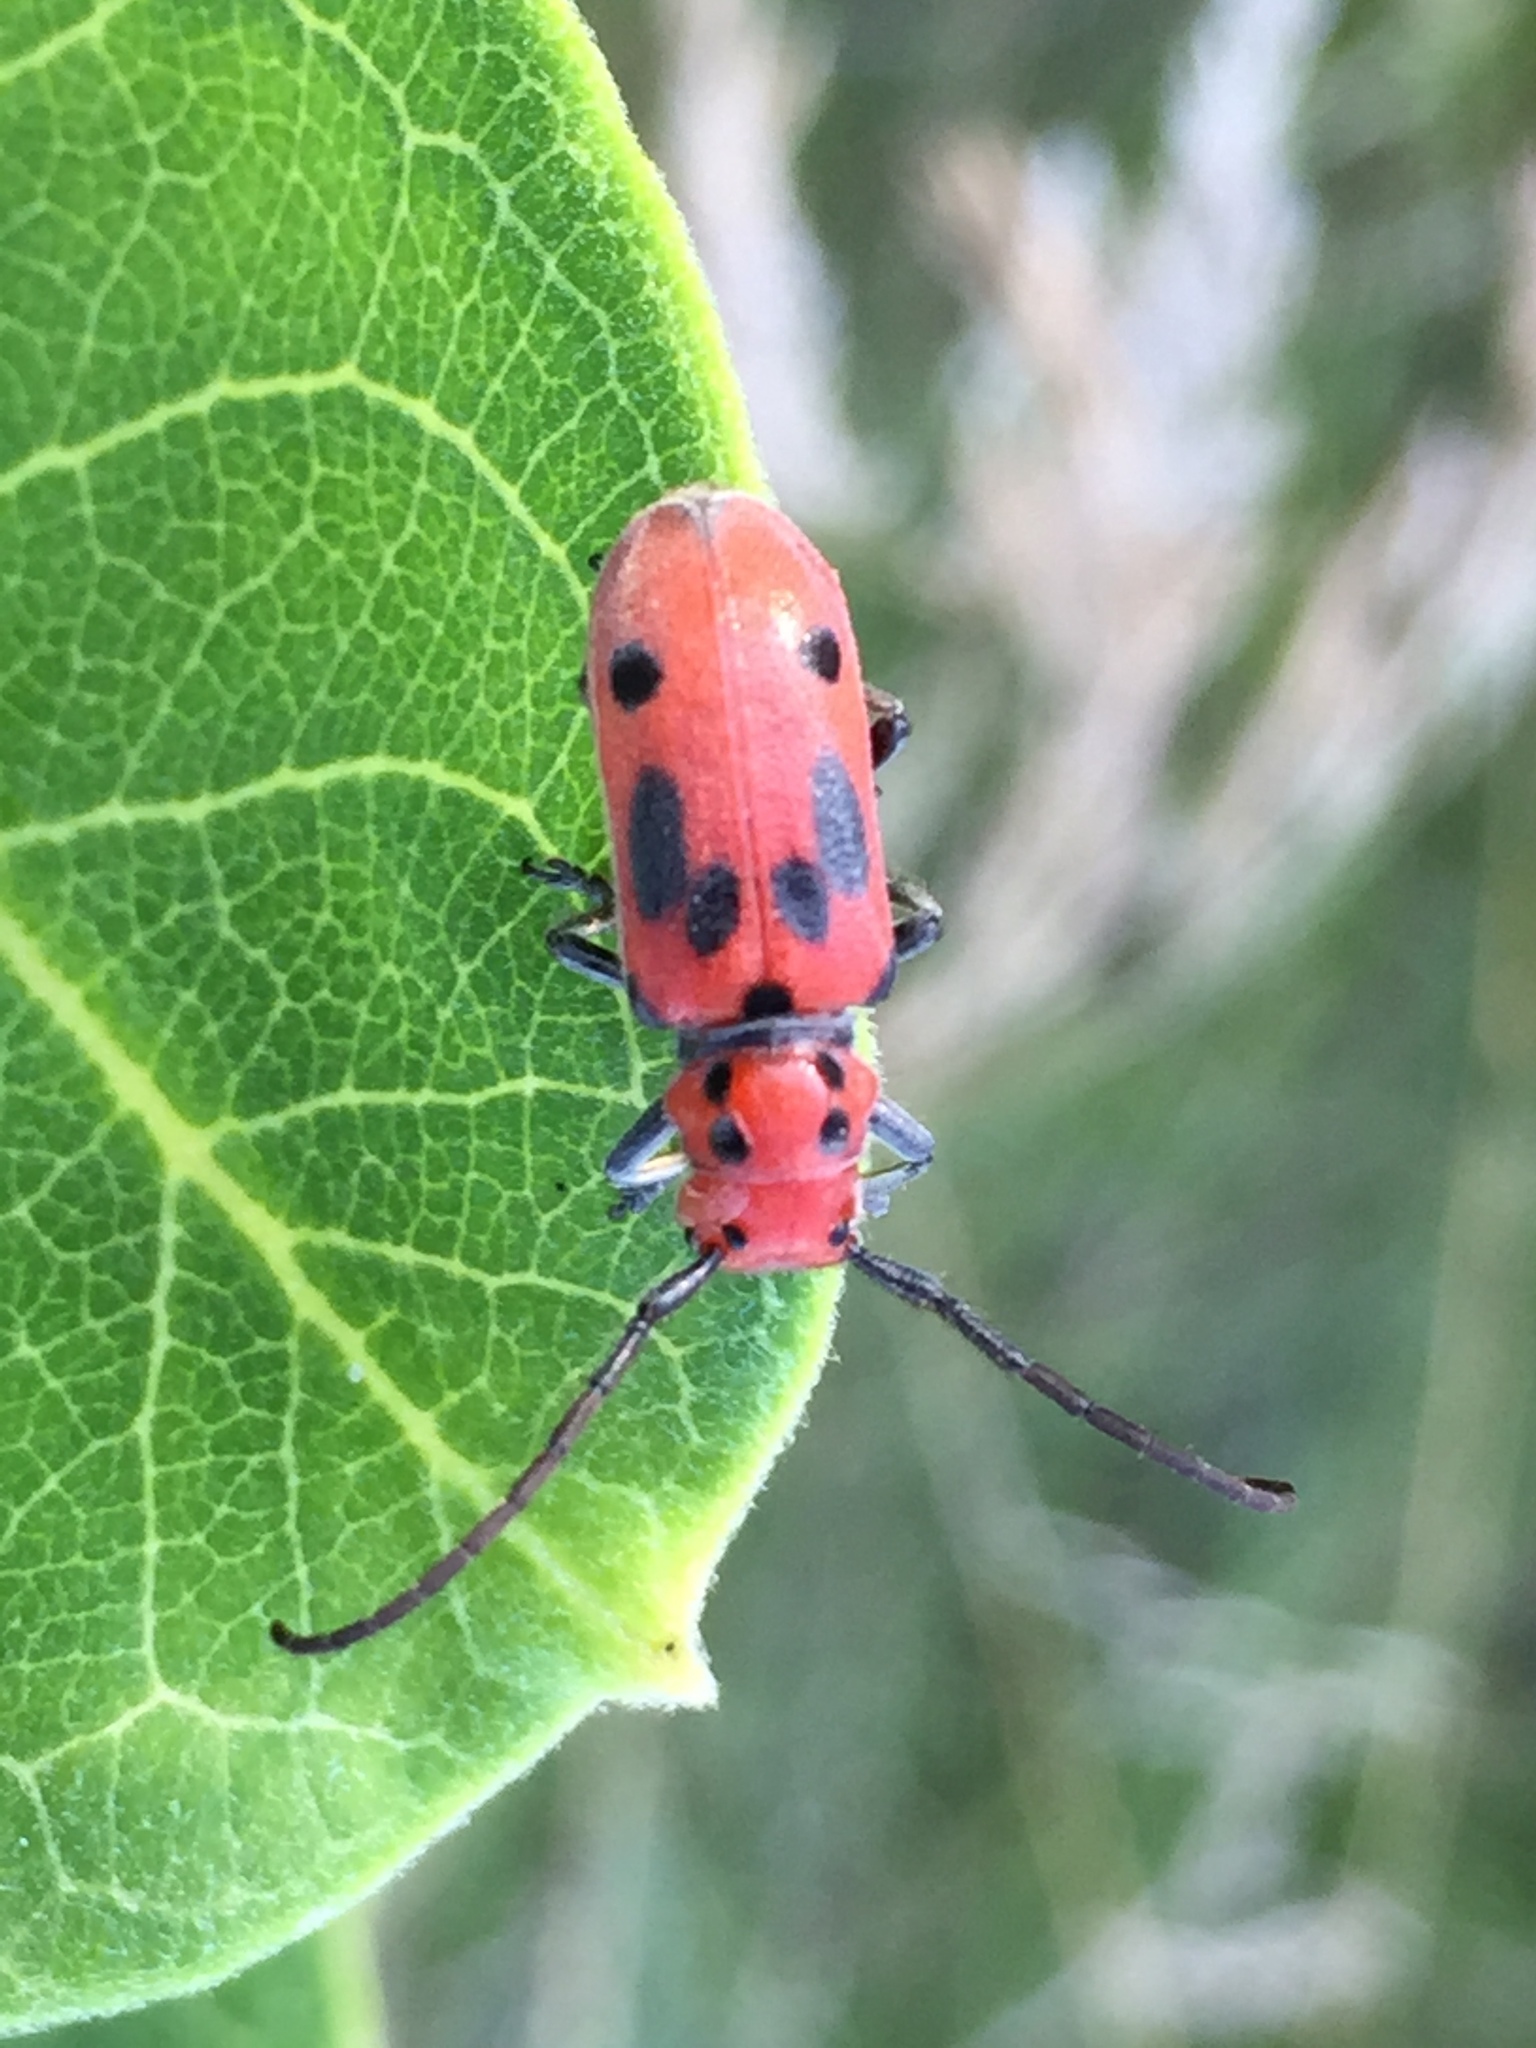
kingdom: Animalia
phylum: Arthropoda
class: Insecta
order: Coleoptera
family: Cerambycidae
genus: Tetraopes
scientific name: Tetraopes tetrophthalmus
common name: Red milkweed beetle
